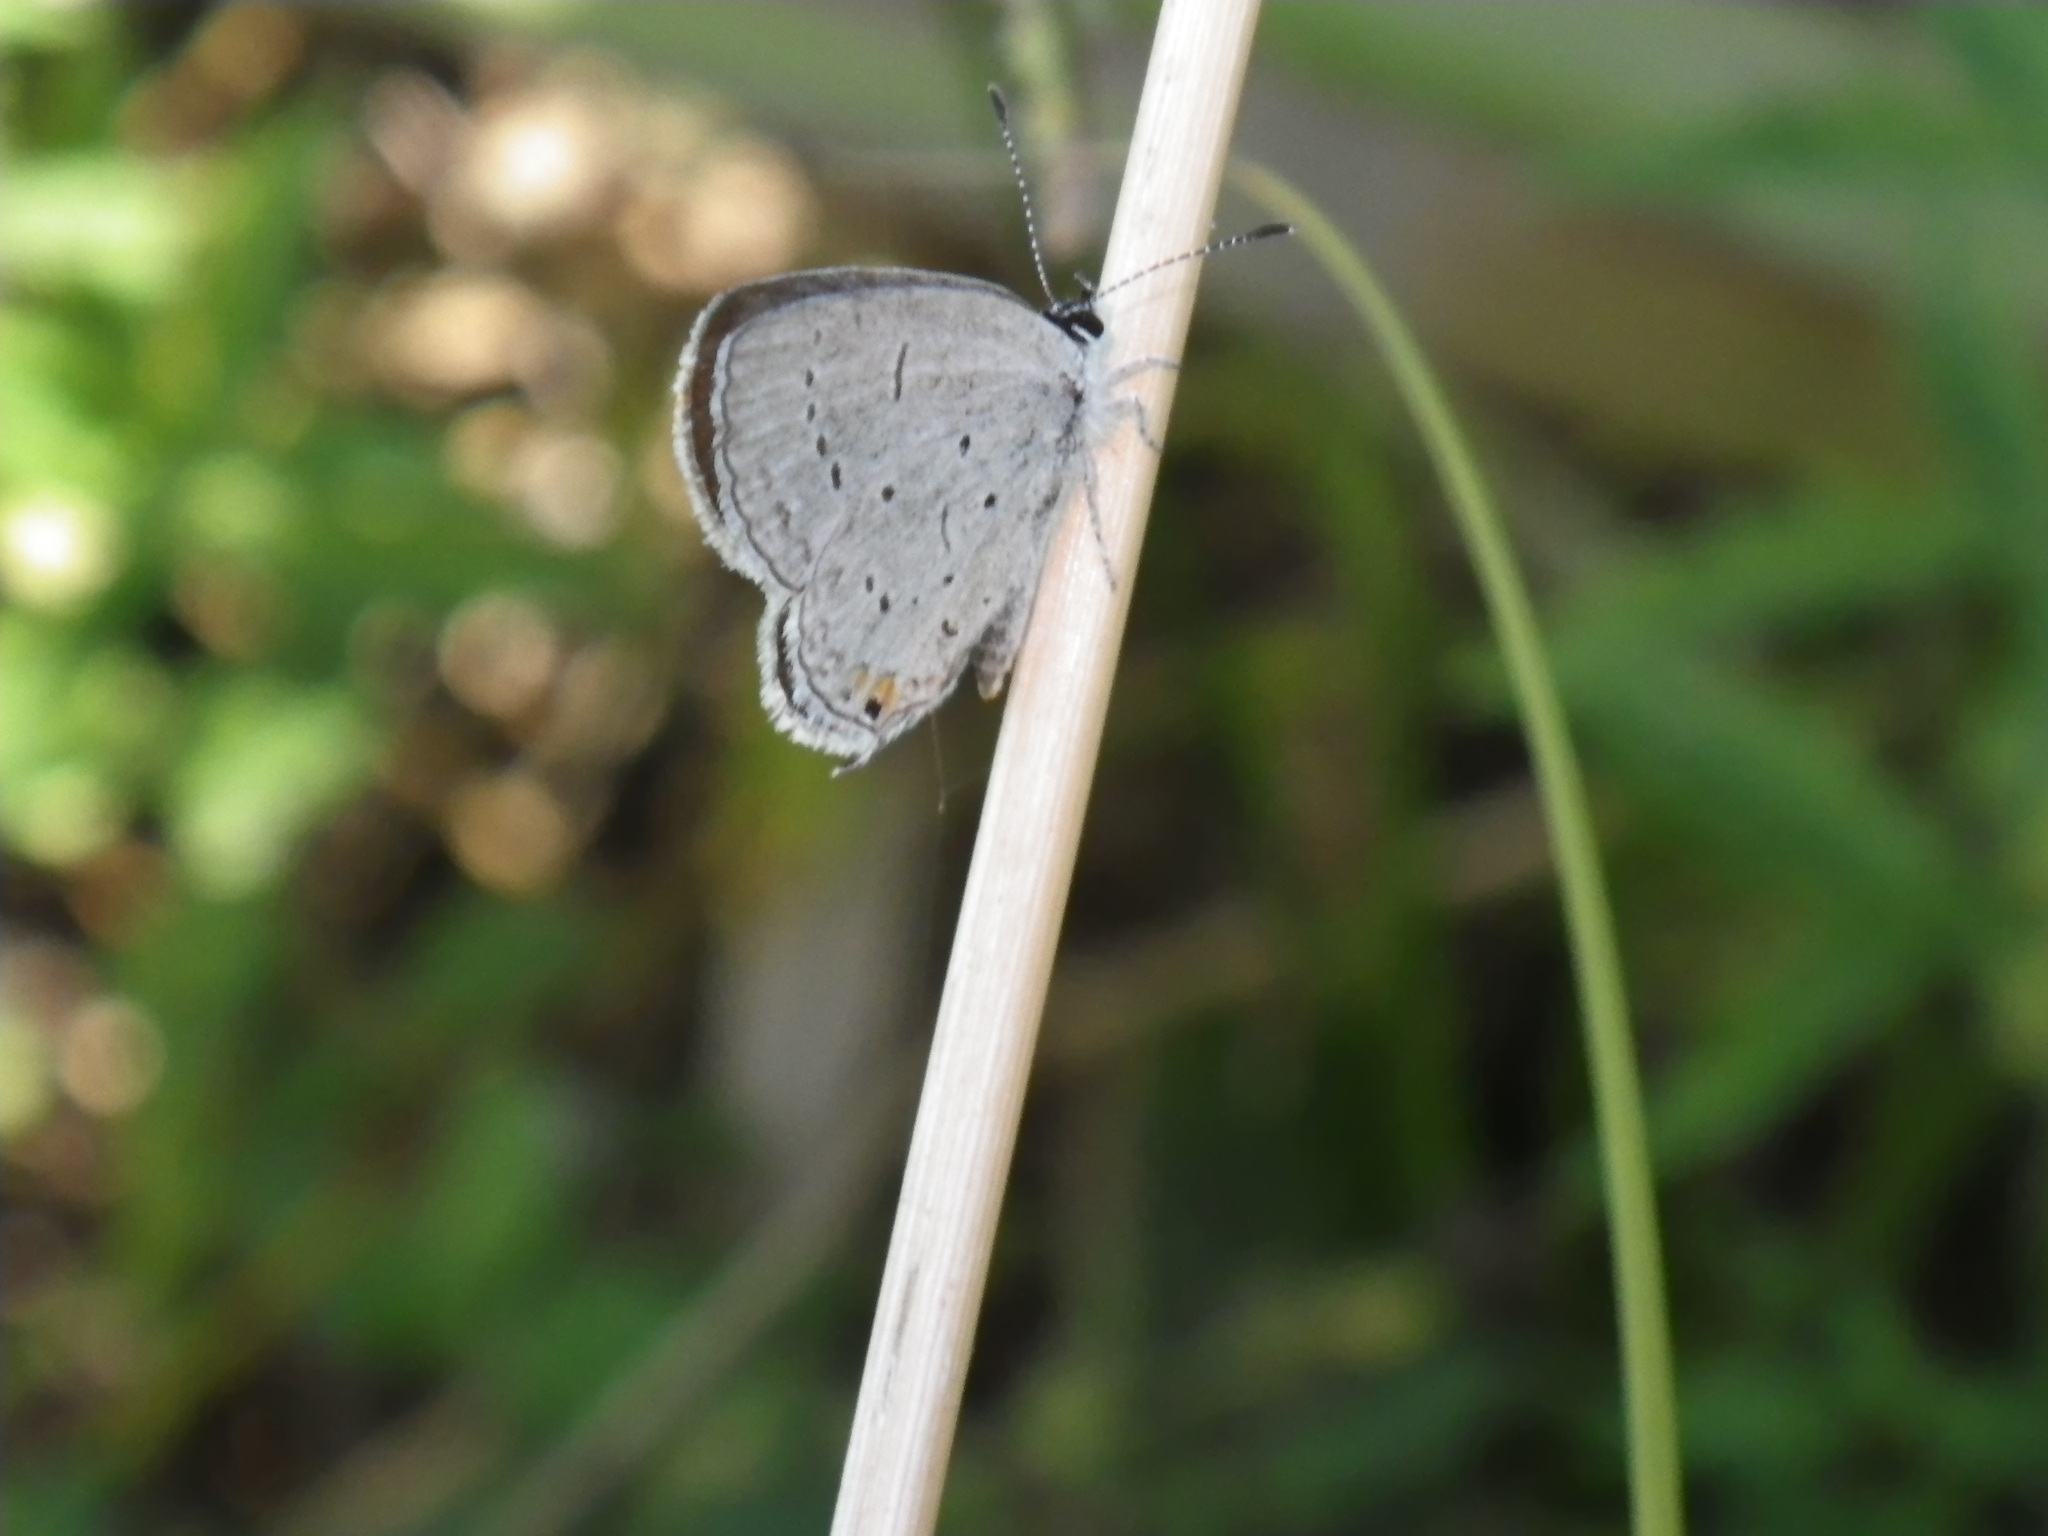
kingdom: Animalia
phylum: Arthropoda
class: Insecta
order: Lepidoptera
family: Lycaenidae
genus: Elkalyce
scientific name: Elkalyce comyntas
